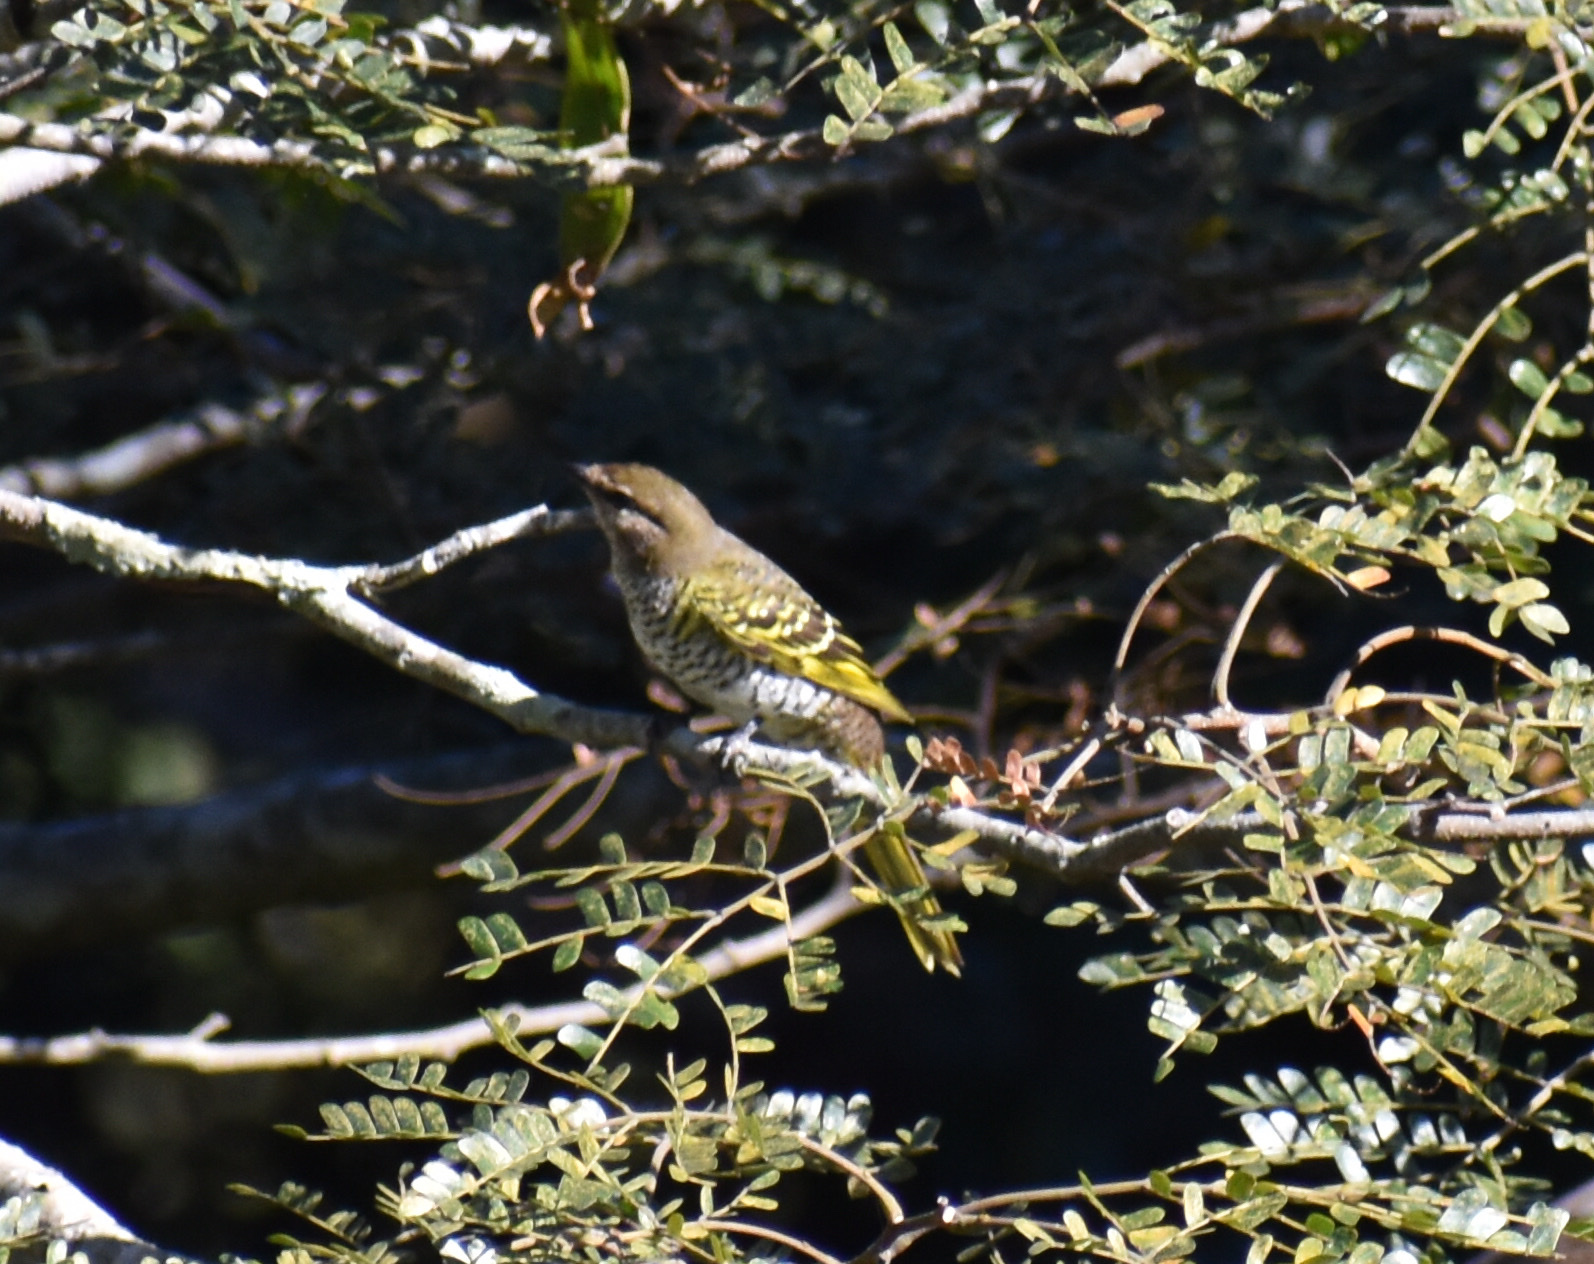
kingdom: Animalia
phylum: Chordata
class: Aves
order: Passeriformes
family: Campephagidae
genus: Campephaga
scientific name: Campephaga flava
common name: Black cuckooshrike
